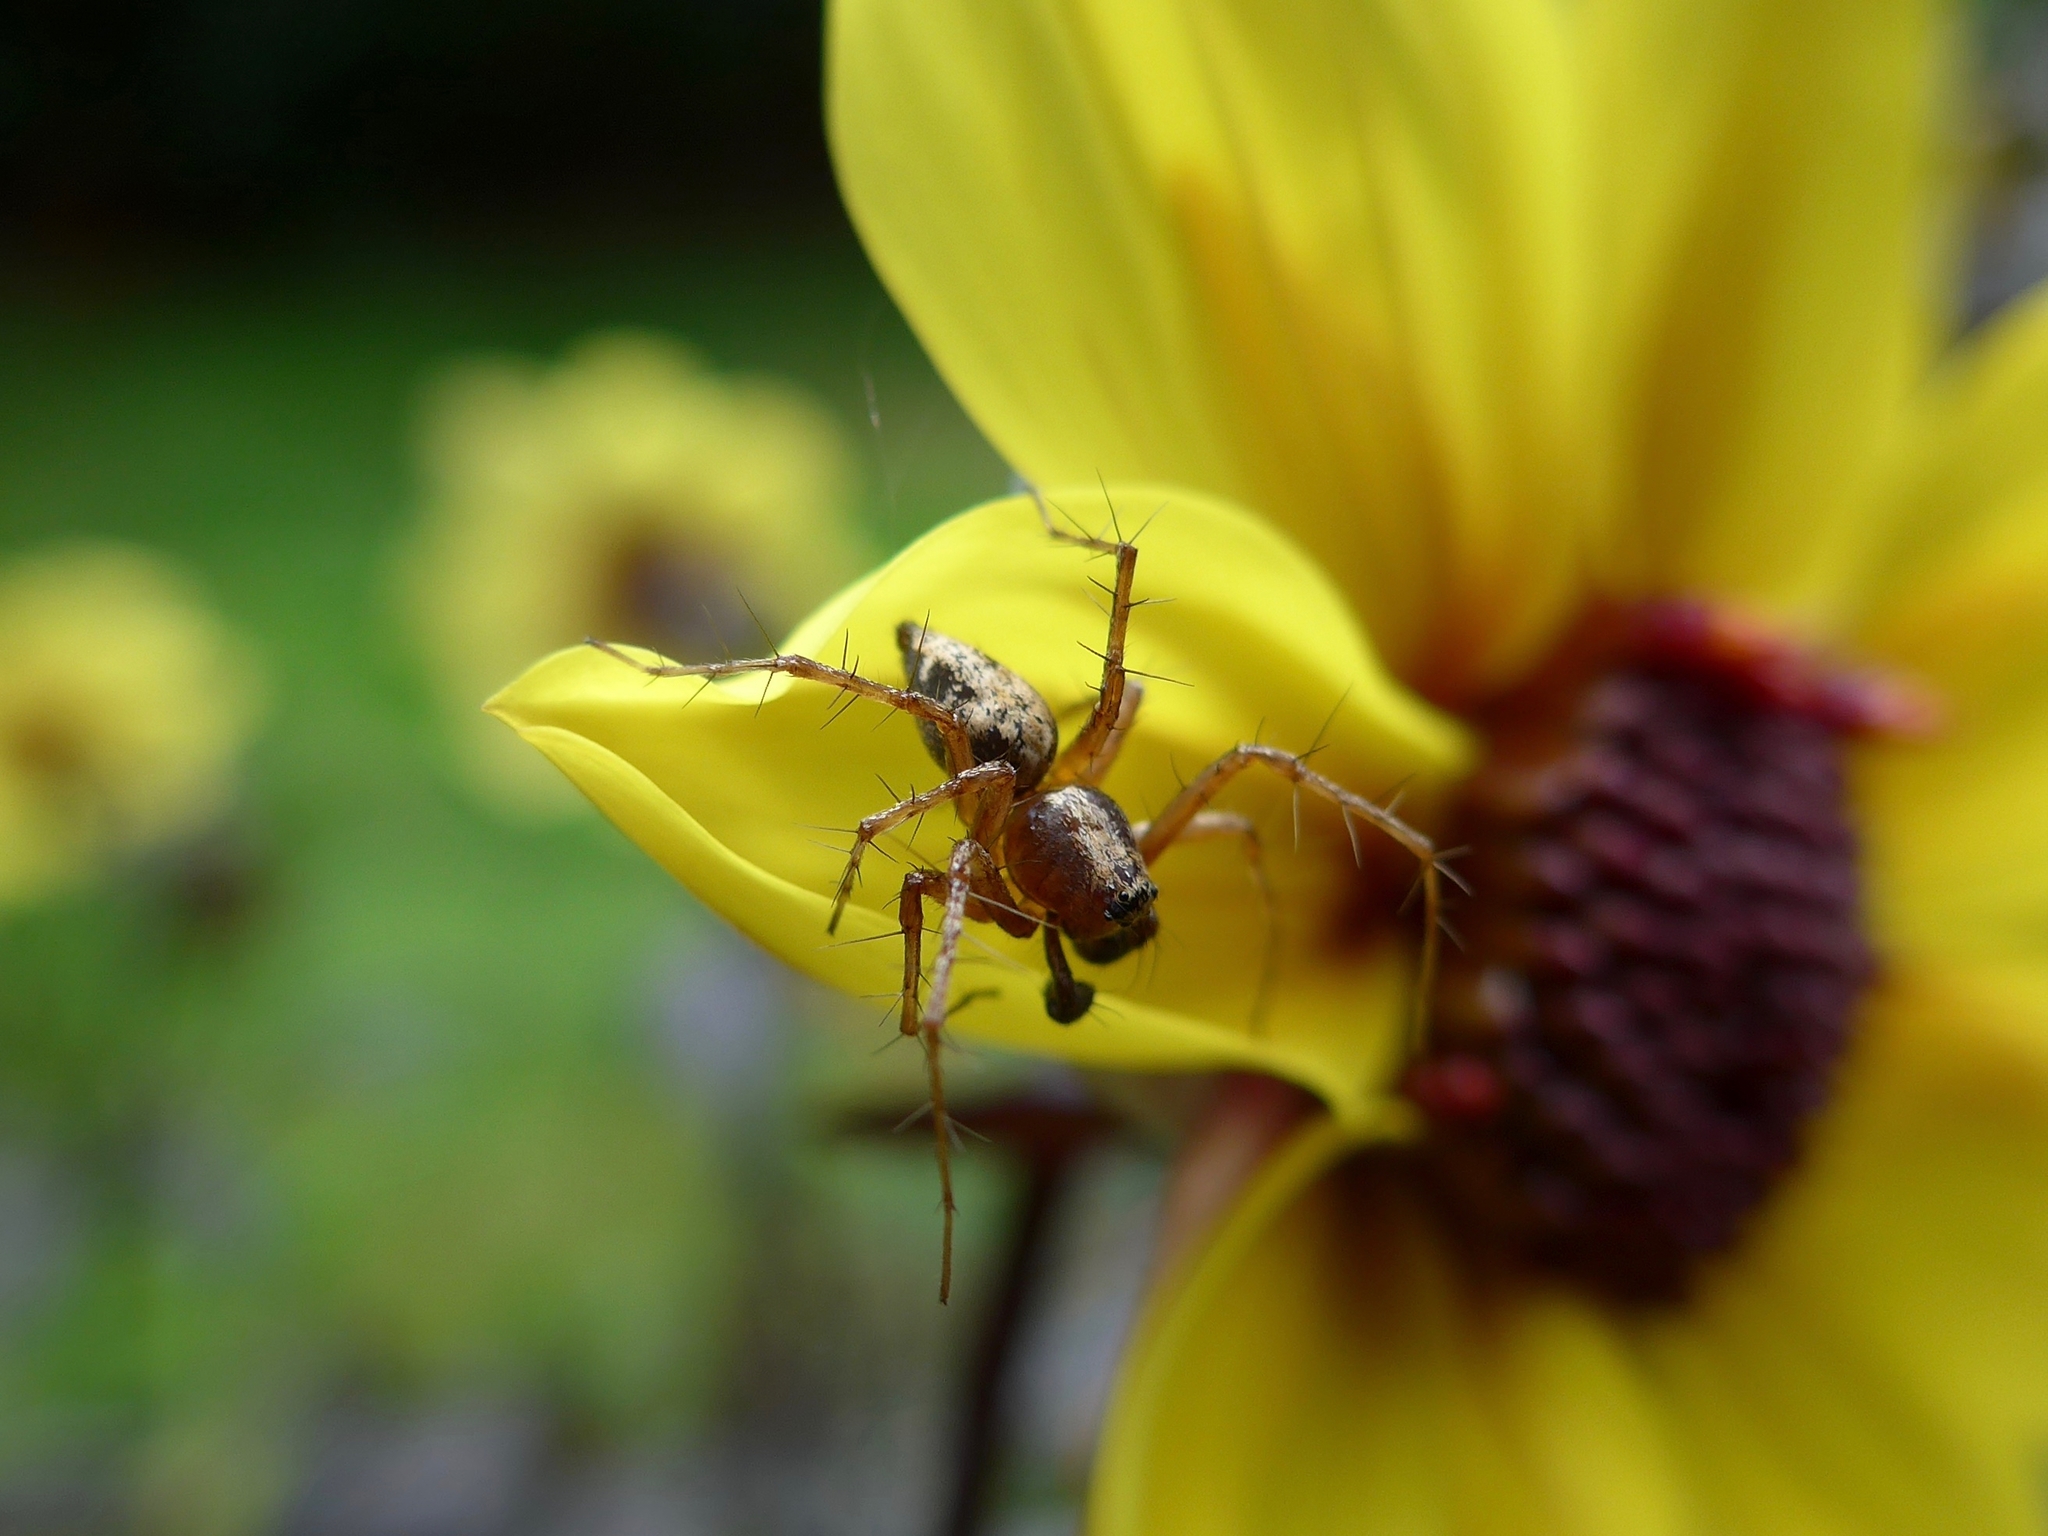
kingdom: Animalia
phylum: Arthropoda
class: Arachnida
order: Araneae
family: Oxyopidae
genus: Oxyopes
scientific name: Oxyopes scalaris
